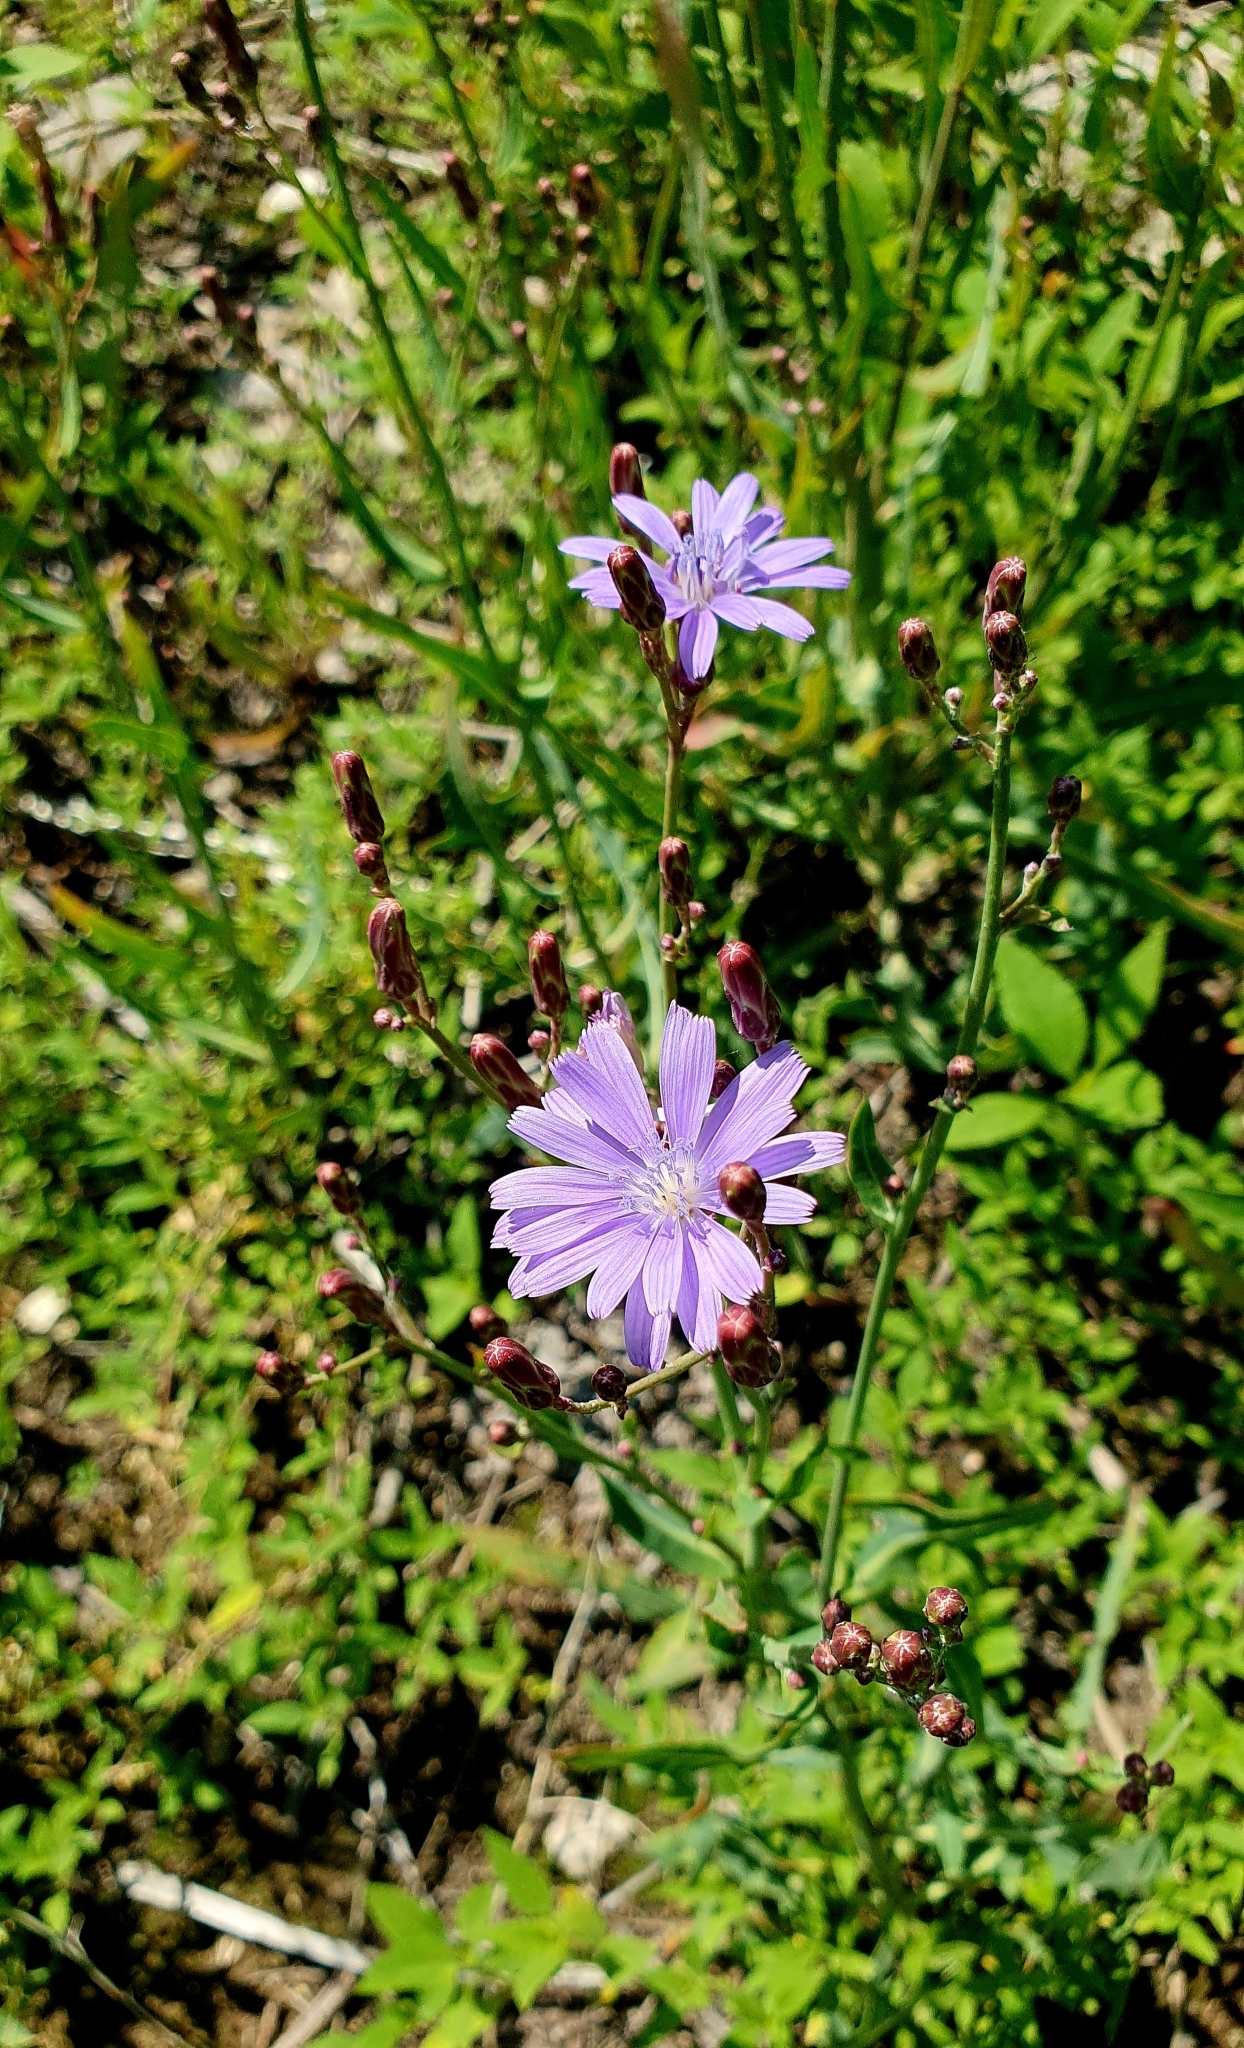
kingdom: Plantae
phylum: Tracheophyta
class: Magnoliopsida
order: Asterales
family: Asteraceae
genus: Lactuca
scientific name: Lactuca tatarica
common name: Blue lettuce
